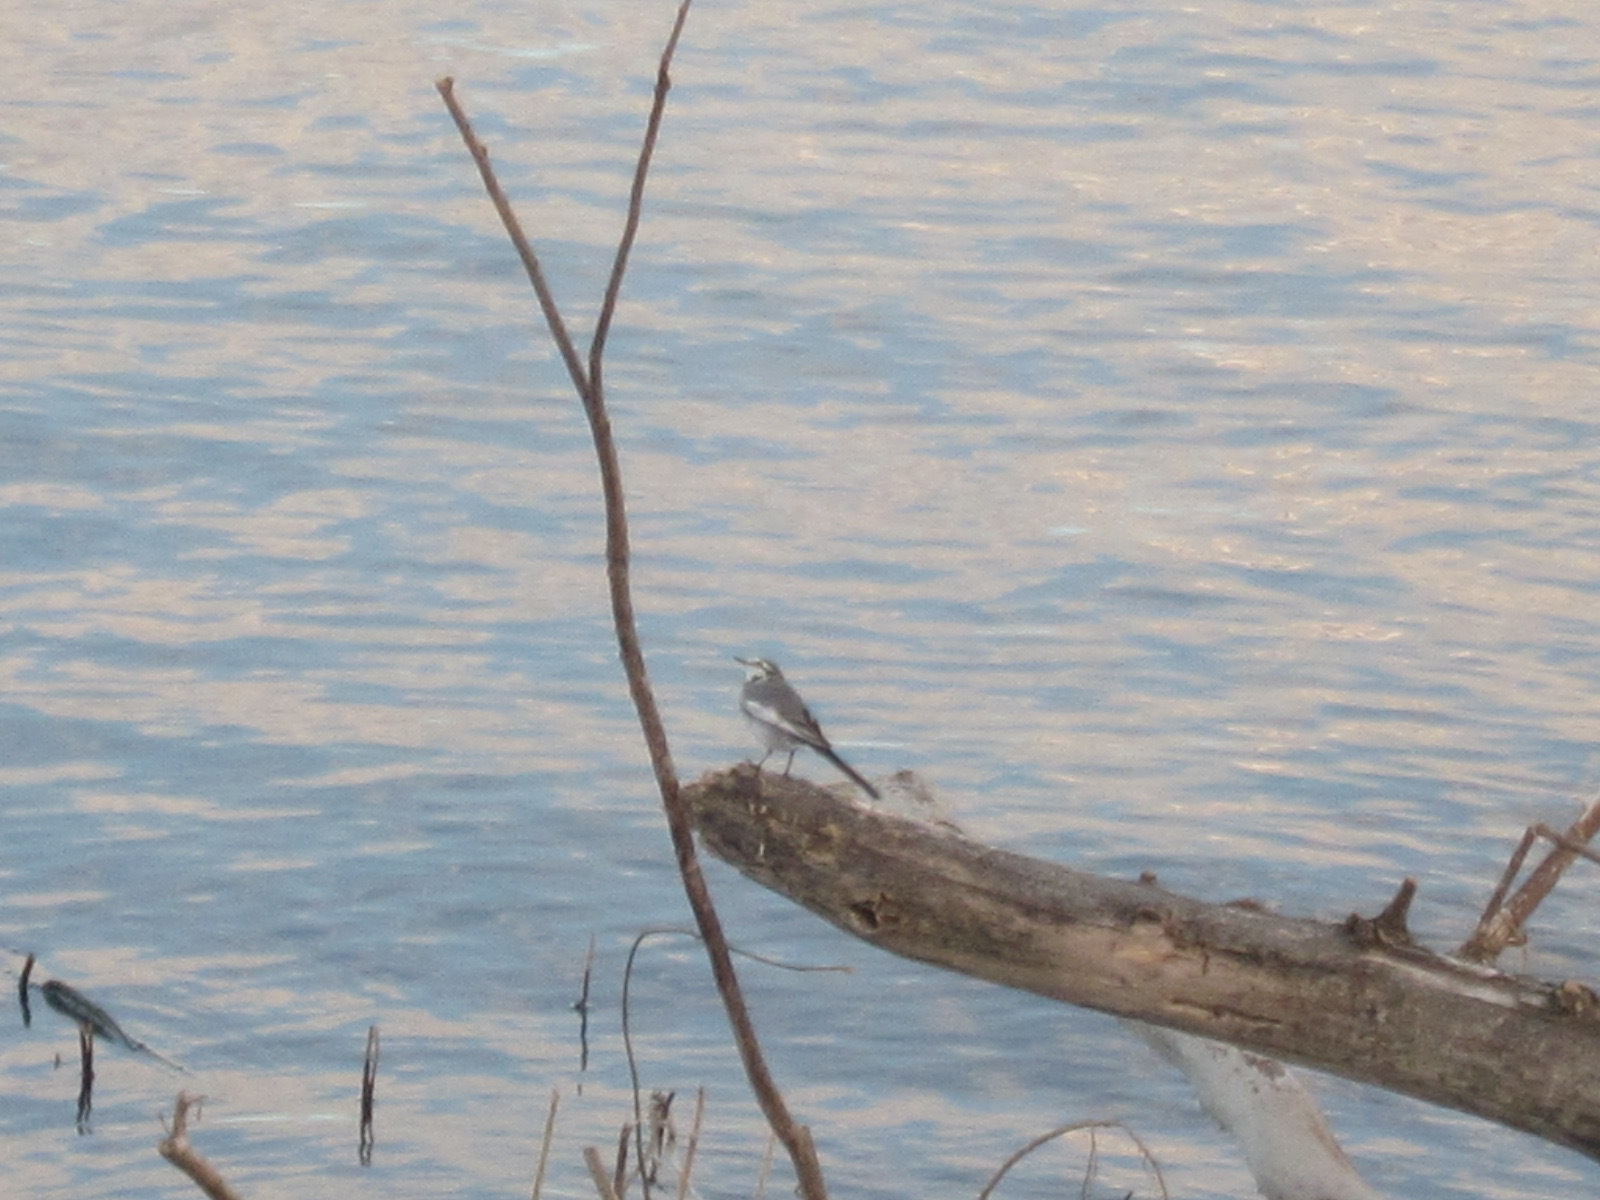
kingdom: Animalia
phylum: Chordata
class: Aves
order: Passeriformes
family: Motacillidae
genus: Motacilla
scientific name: Motacilla alba
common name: White wagtail
